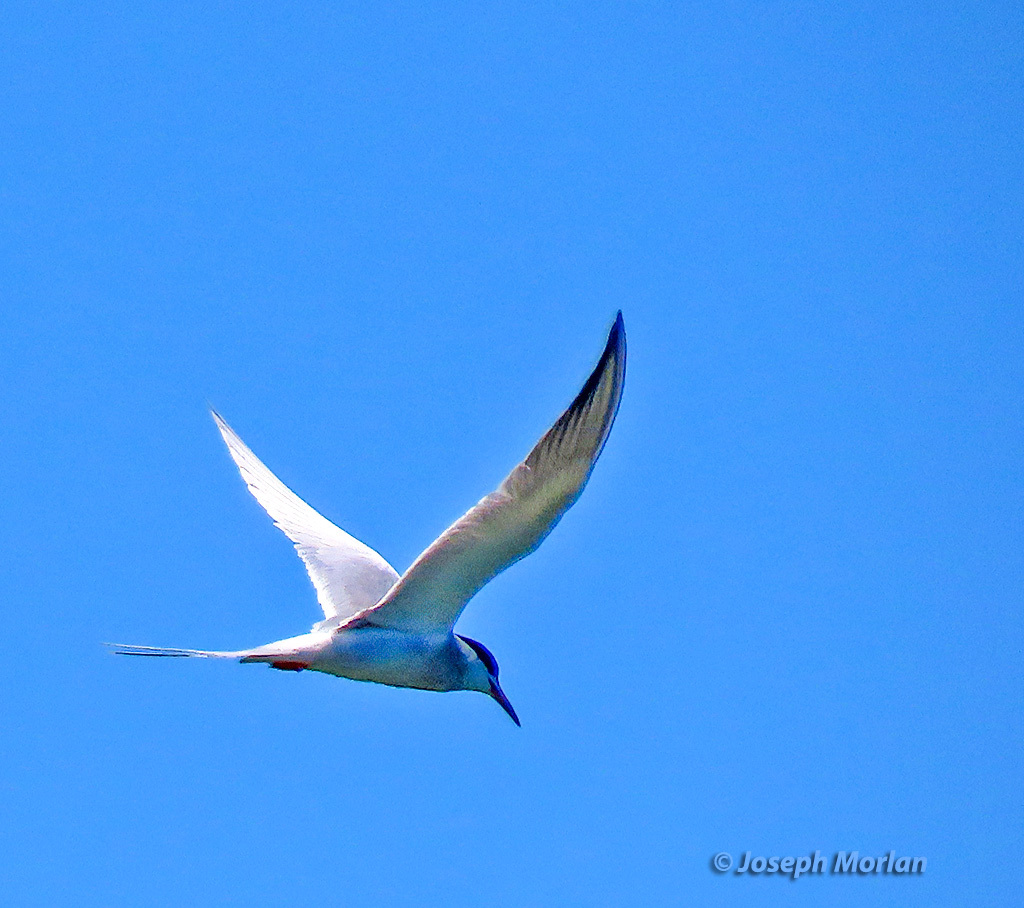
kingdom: Animalia
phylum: Chordata
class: Aves
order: Charadriiformes
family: Laridae
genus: Sterna
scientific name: Sterna forsteri
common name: Forster's tern
